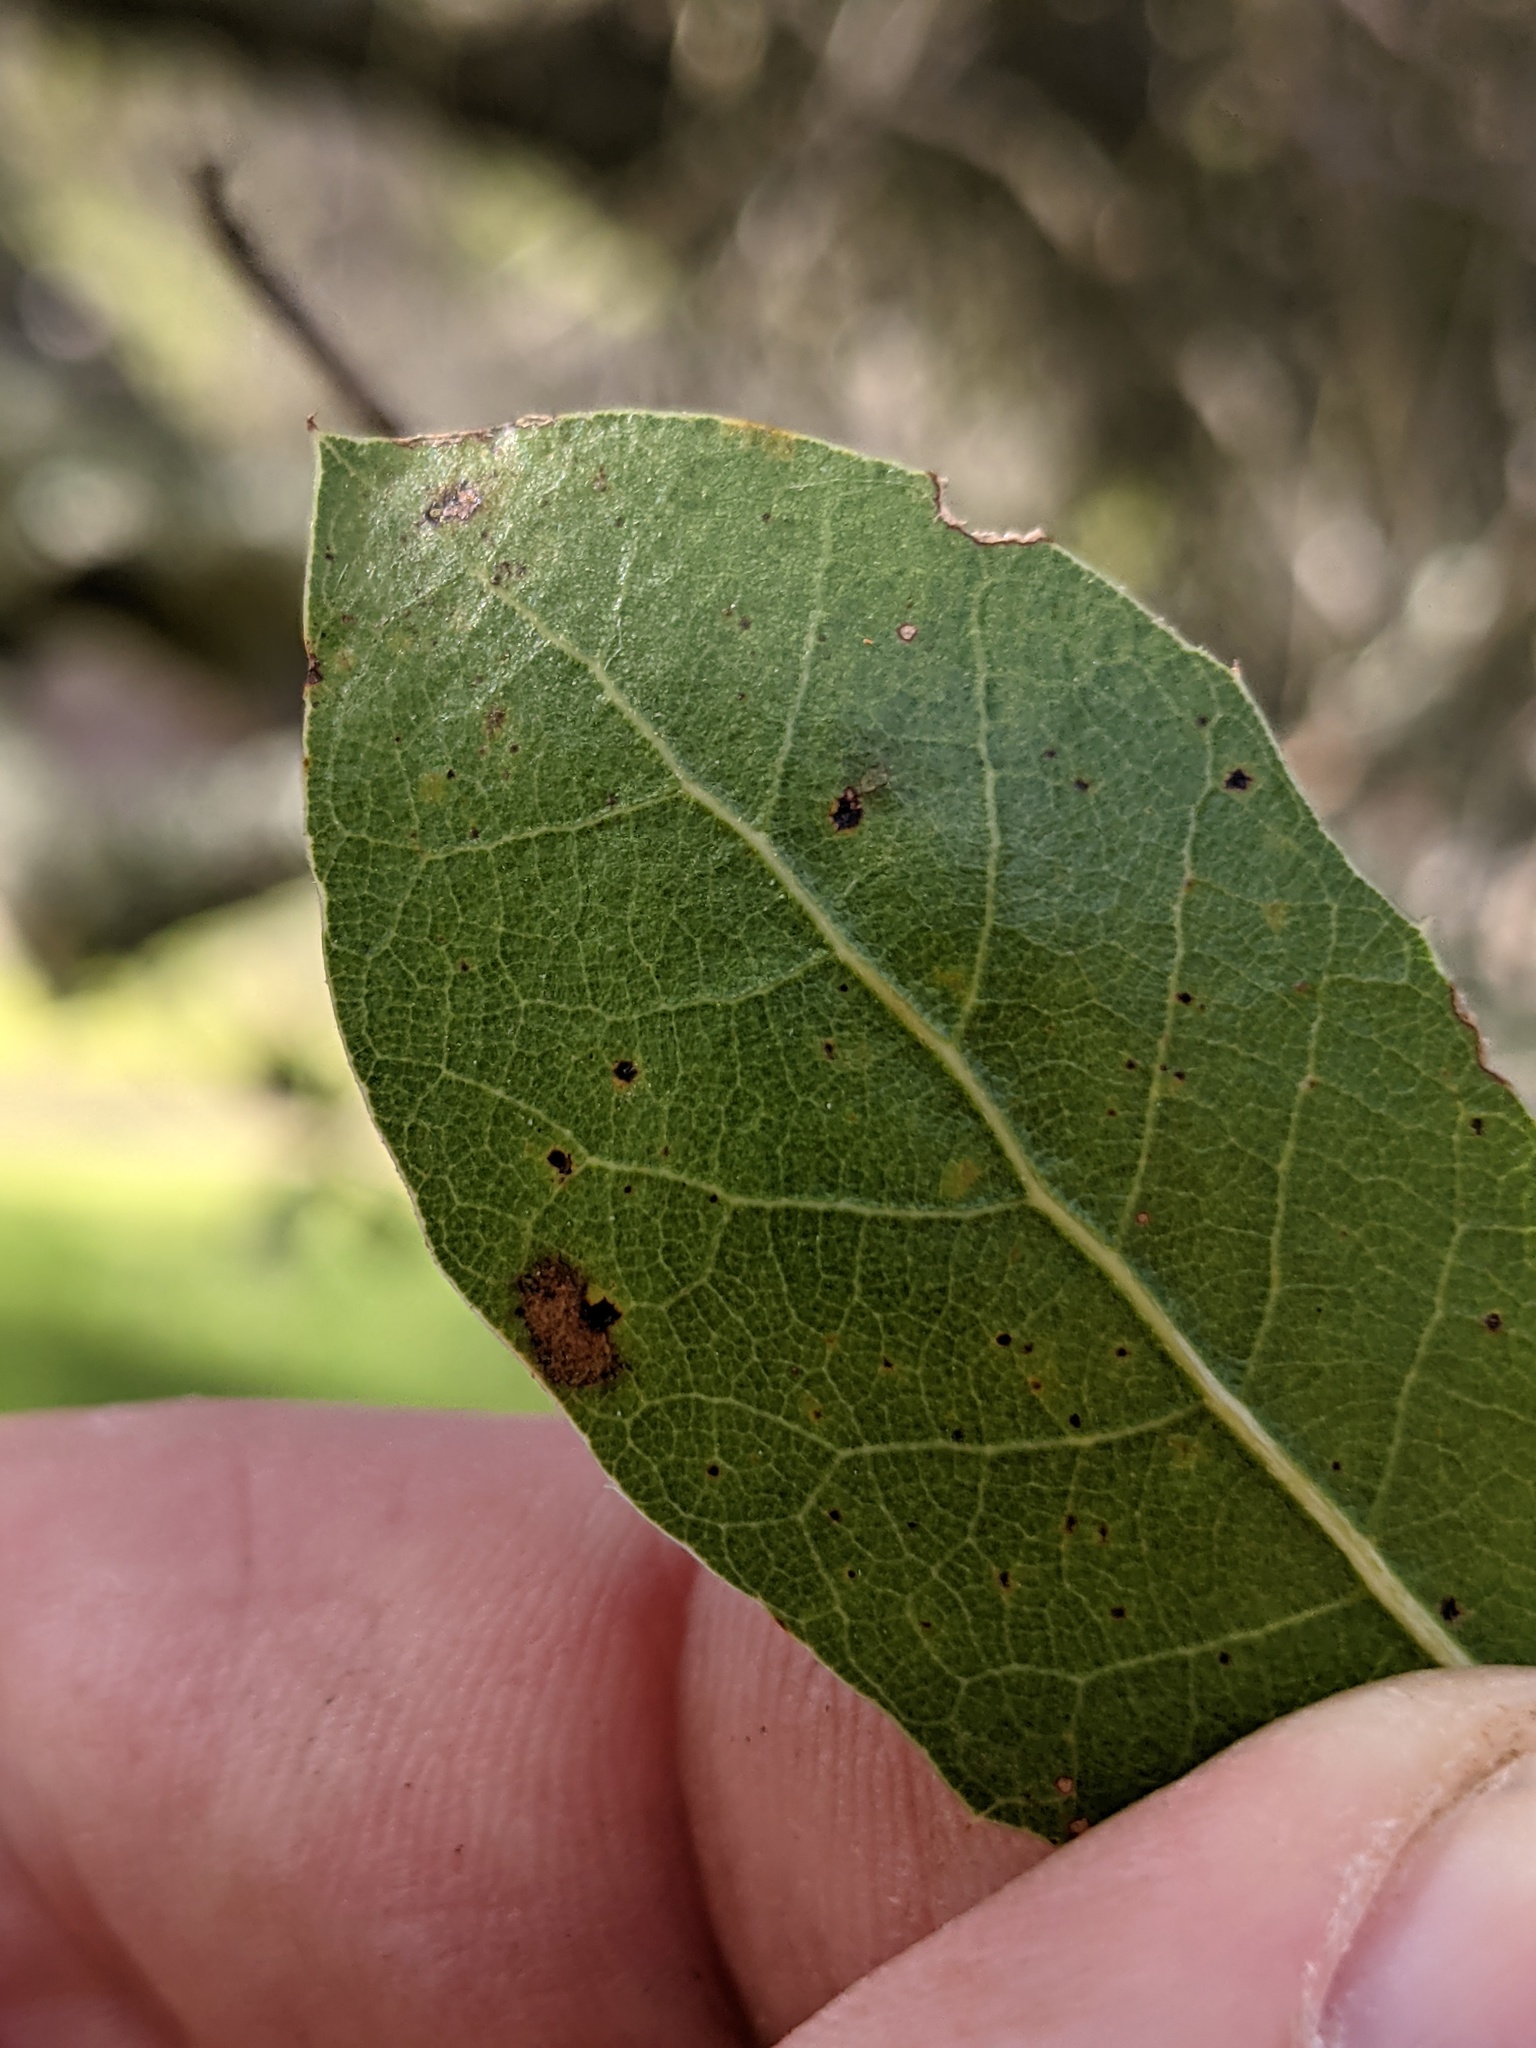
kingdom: Plantae
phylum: Tracheophyta
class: Magnoliopsida
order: Fagales
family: Fagaceae
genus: Quercus
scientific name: Quercus wislizeni
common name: Interior live oak
